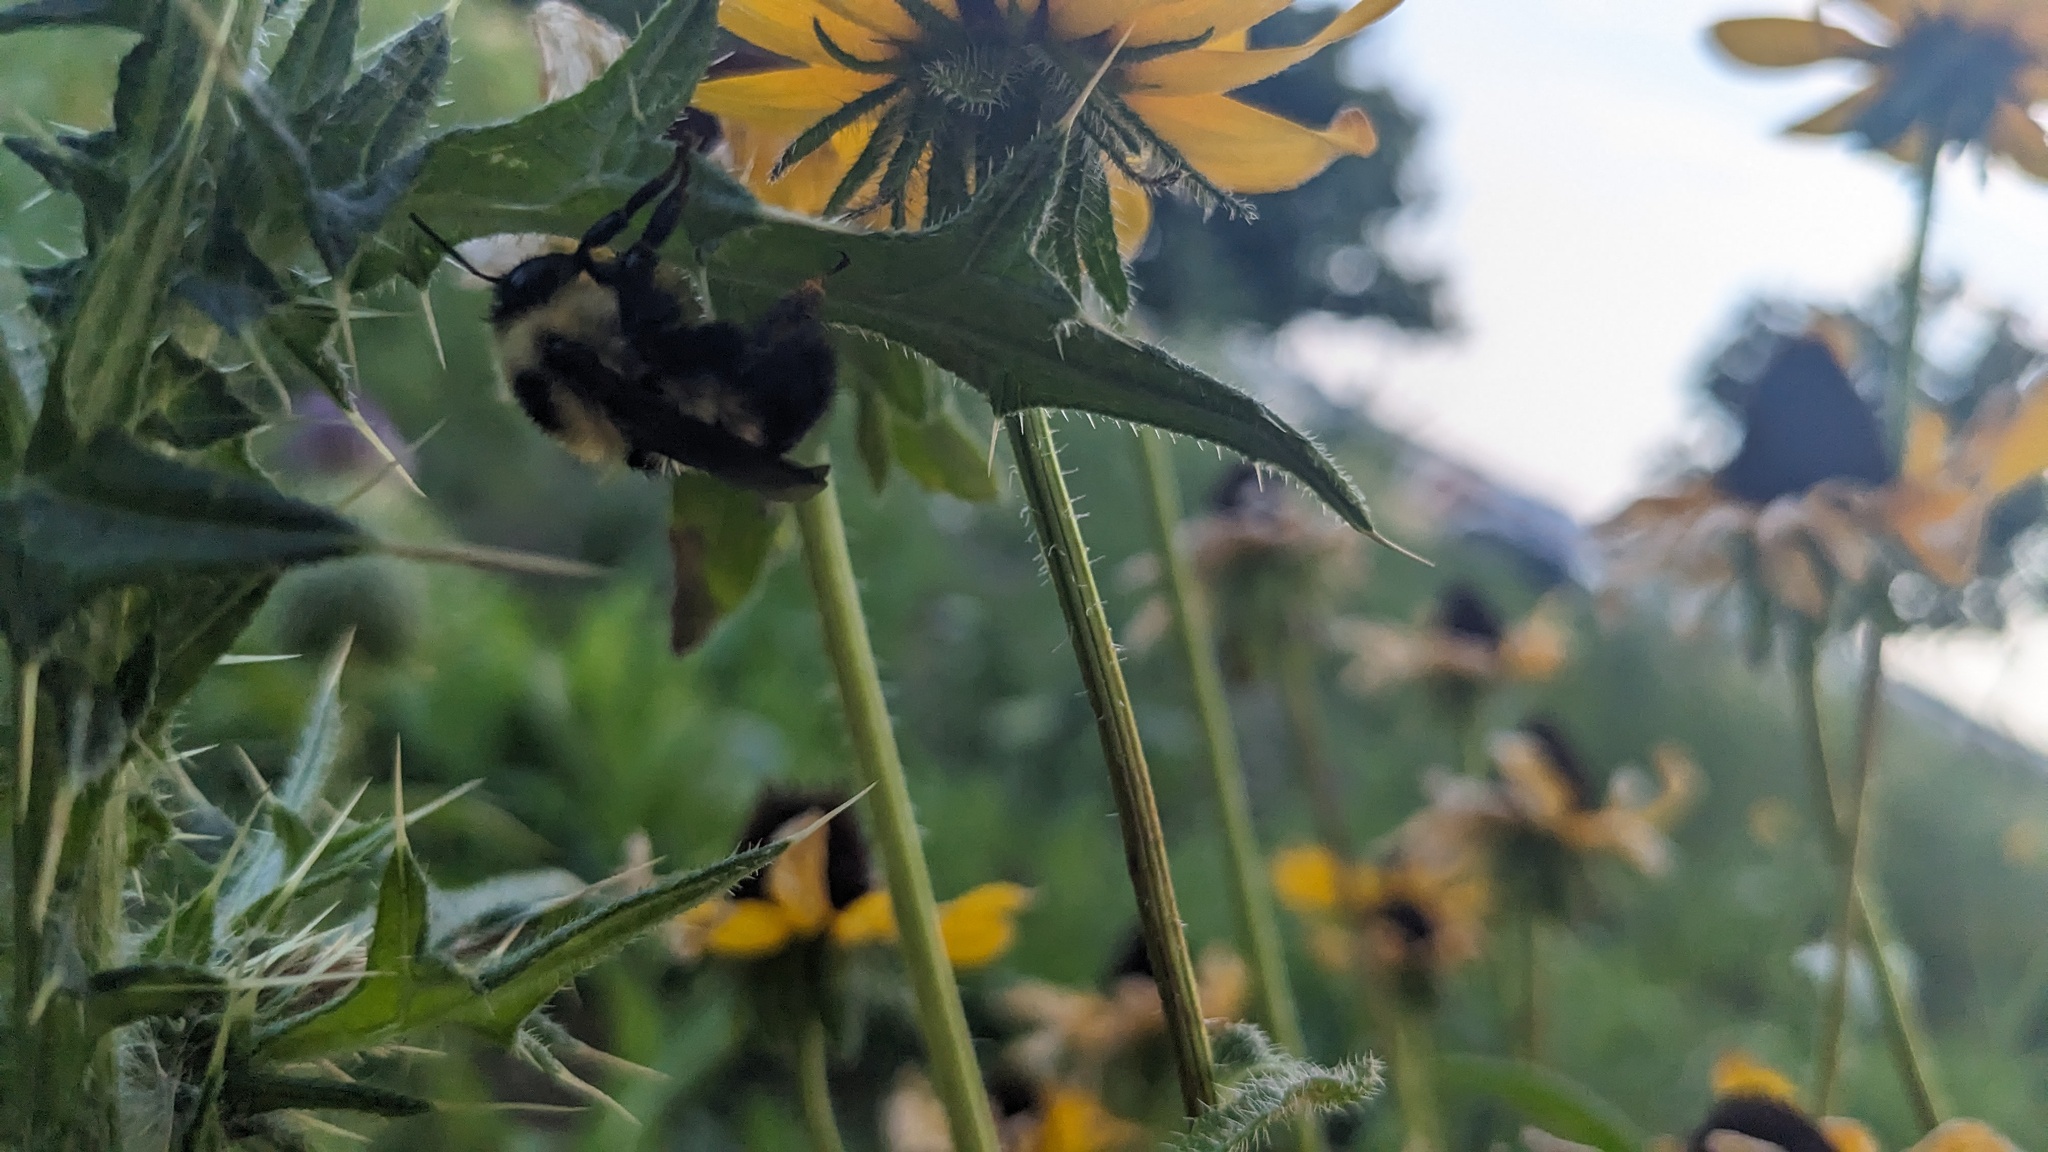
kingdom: Animalia
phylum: Arthropoda
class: Insecta
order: Hymenoptera
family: Apidae
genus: Bombus
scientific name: Bombus rufocinctus
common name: Red-belted bumble bee
